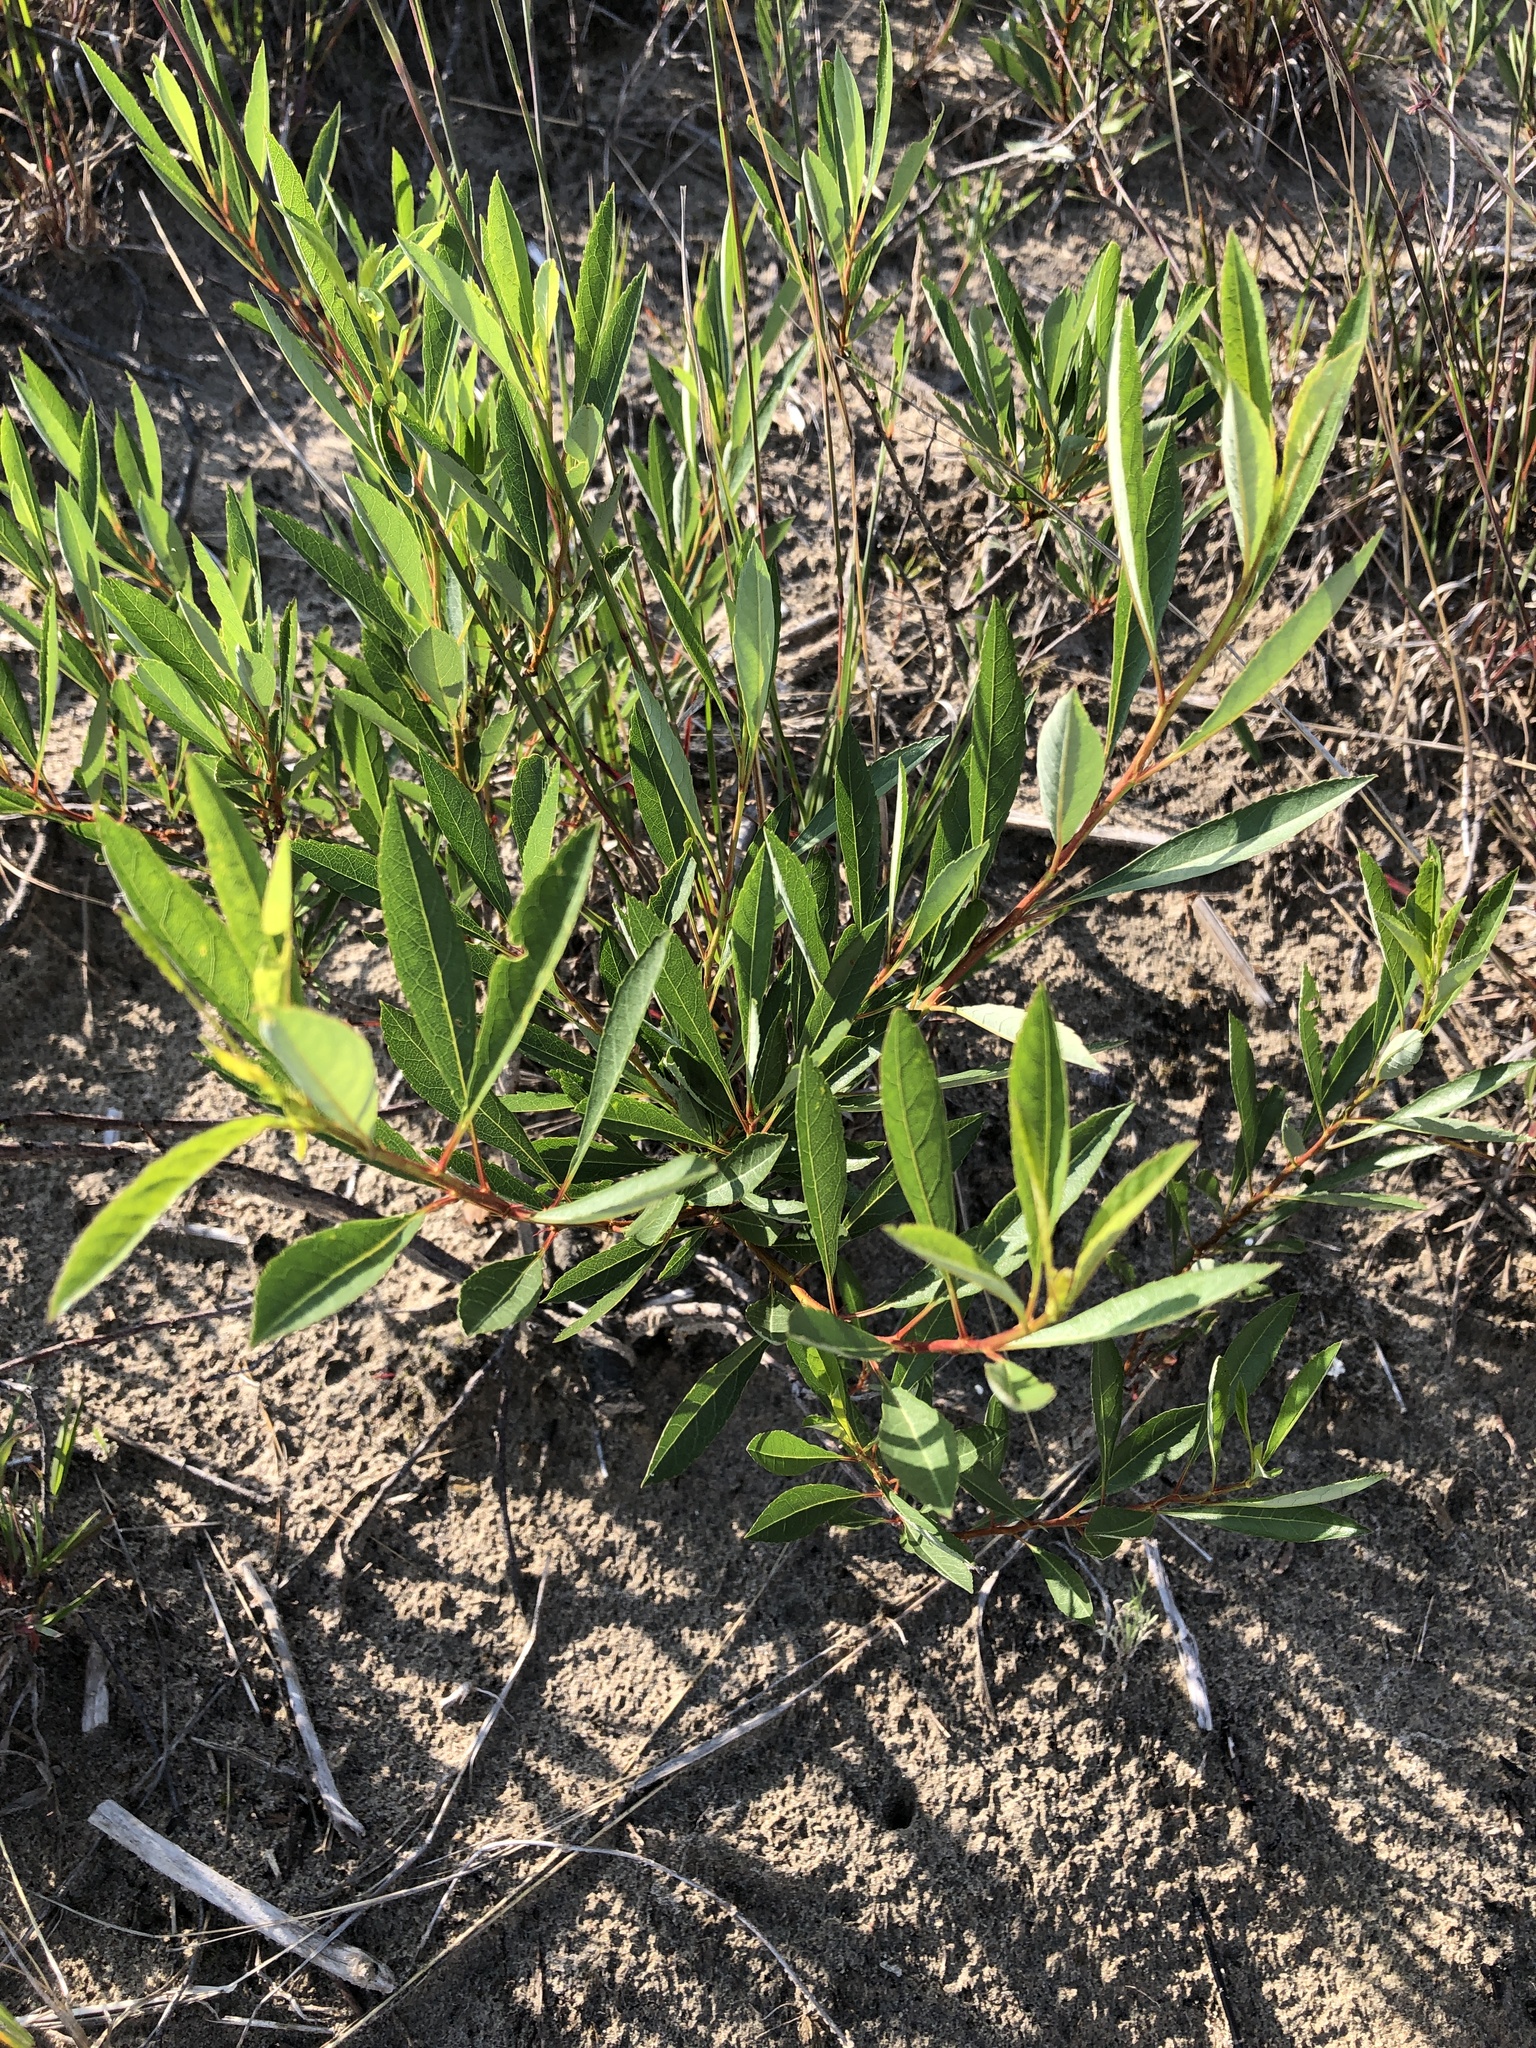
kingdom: Plantae
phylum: Tracheophyta
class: Magnoliopsida
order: Rosales
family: Rosaceae
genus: Prunus
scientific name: Prunus pumila
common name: Dwarf cherry
